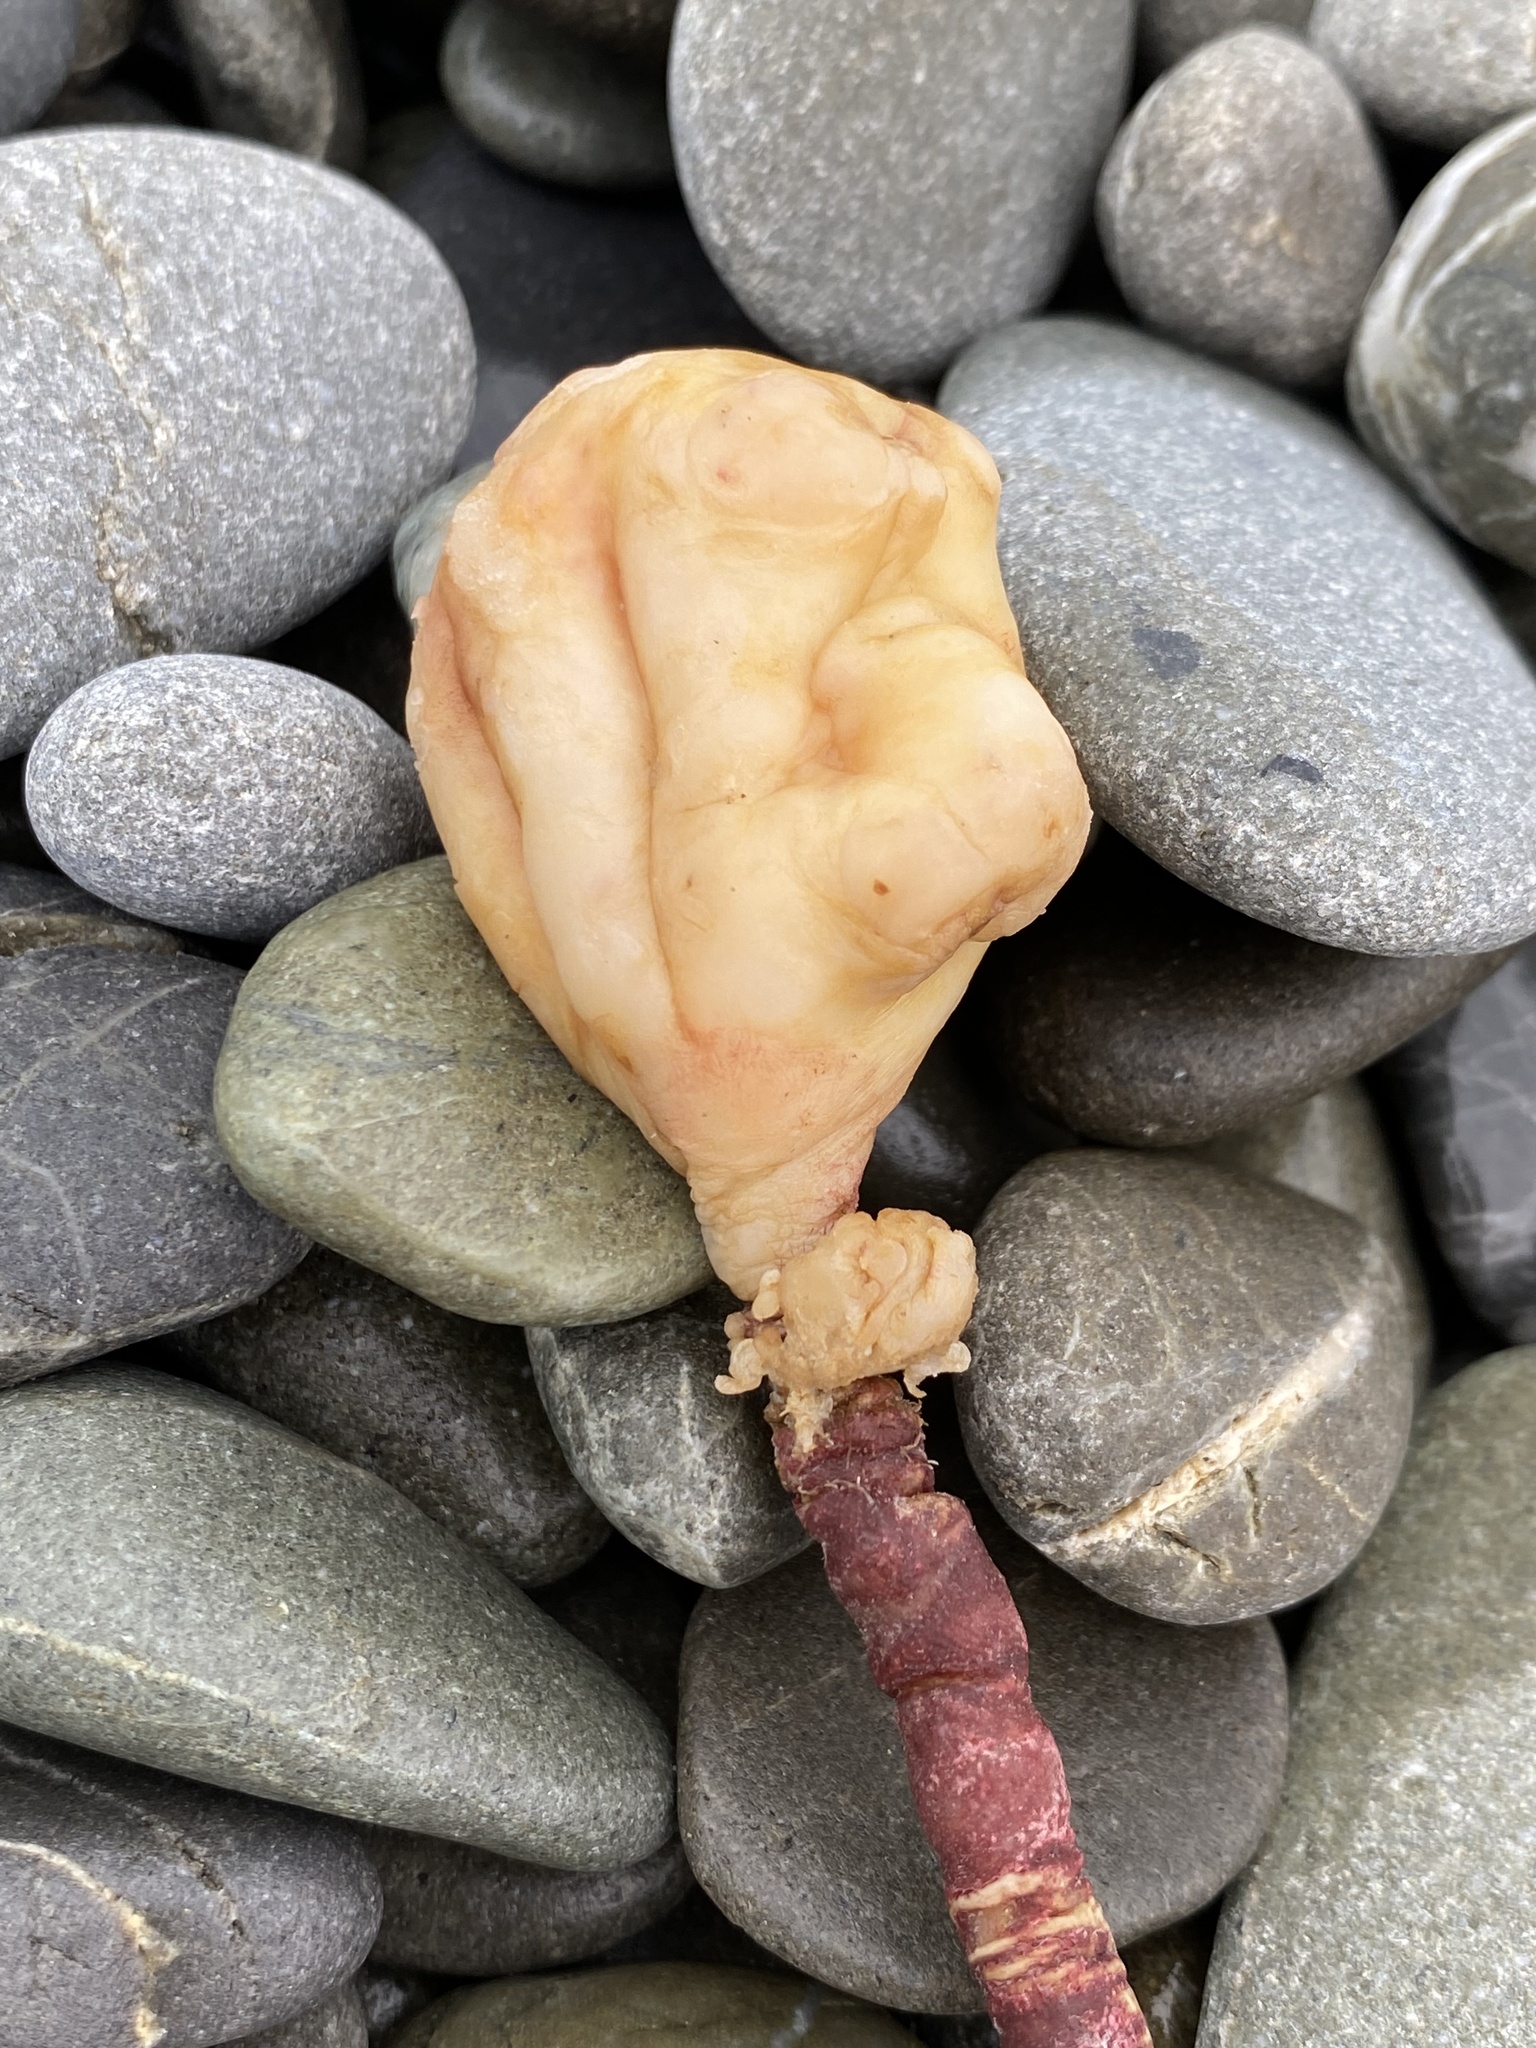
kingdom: Animalia
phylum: Chordata
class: Ascidiacea
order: Stolidobranchia
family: Pyuridae
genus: Pyura
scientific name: Pyura pachydermatina
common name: Sea tulip
